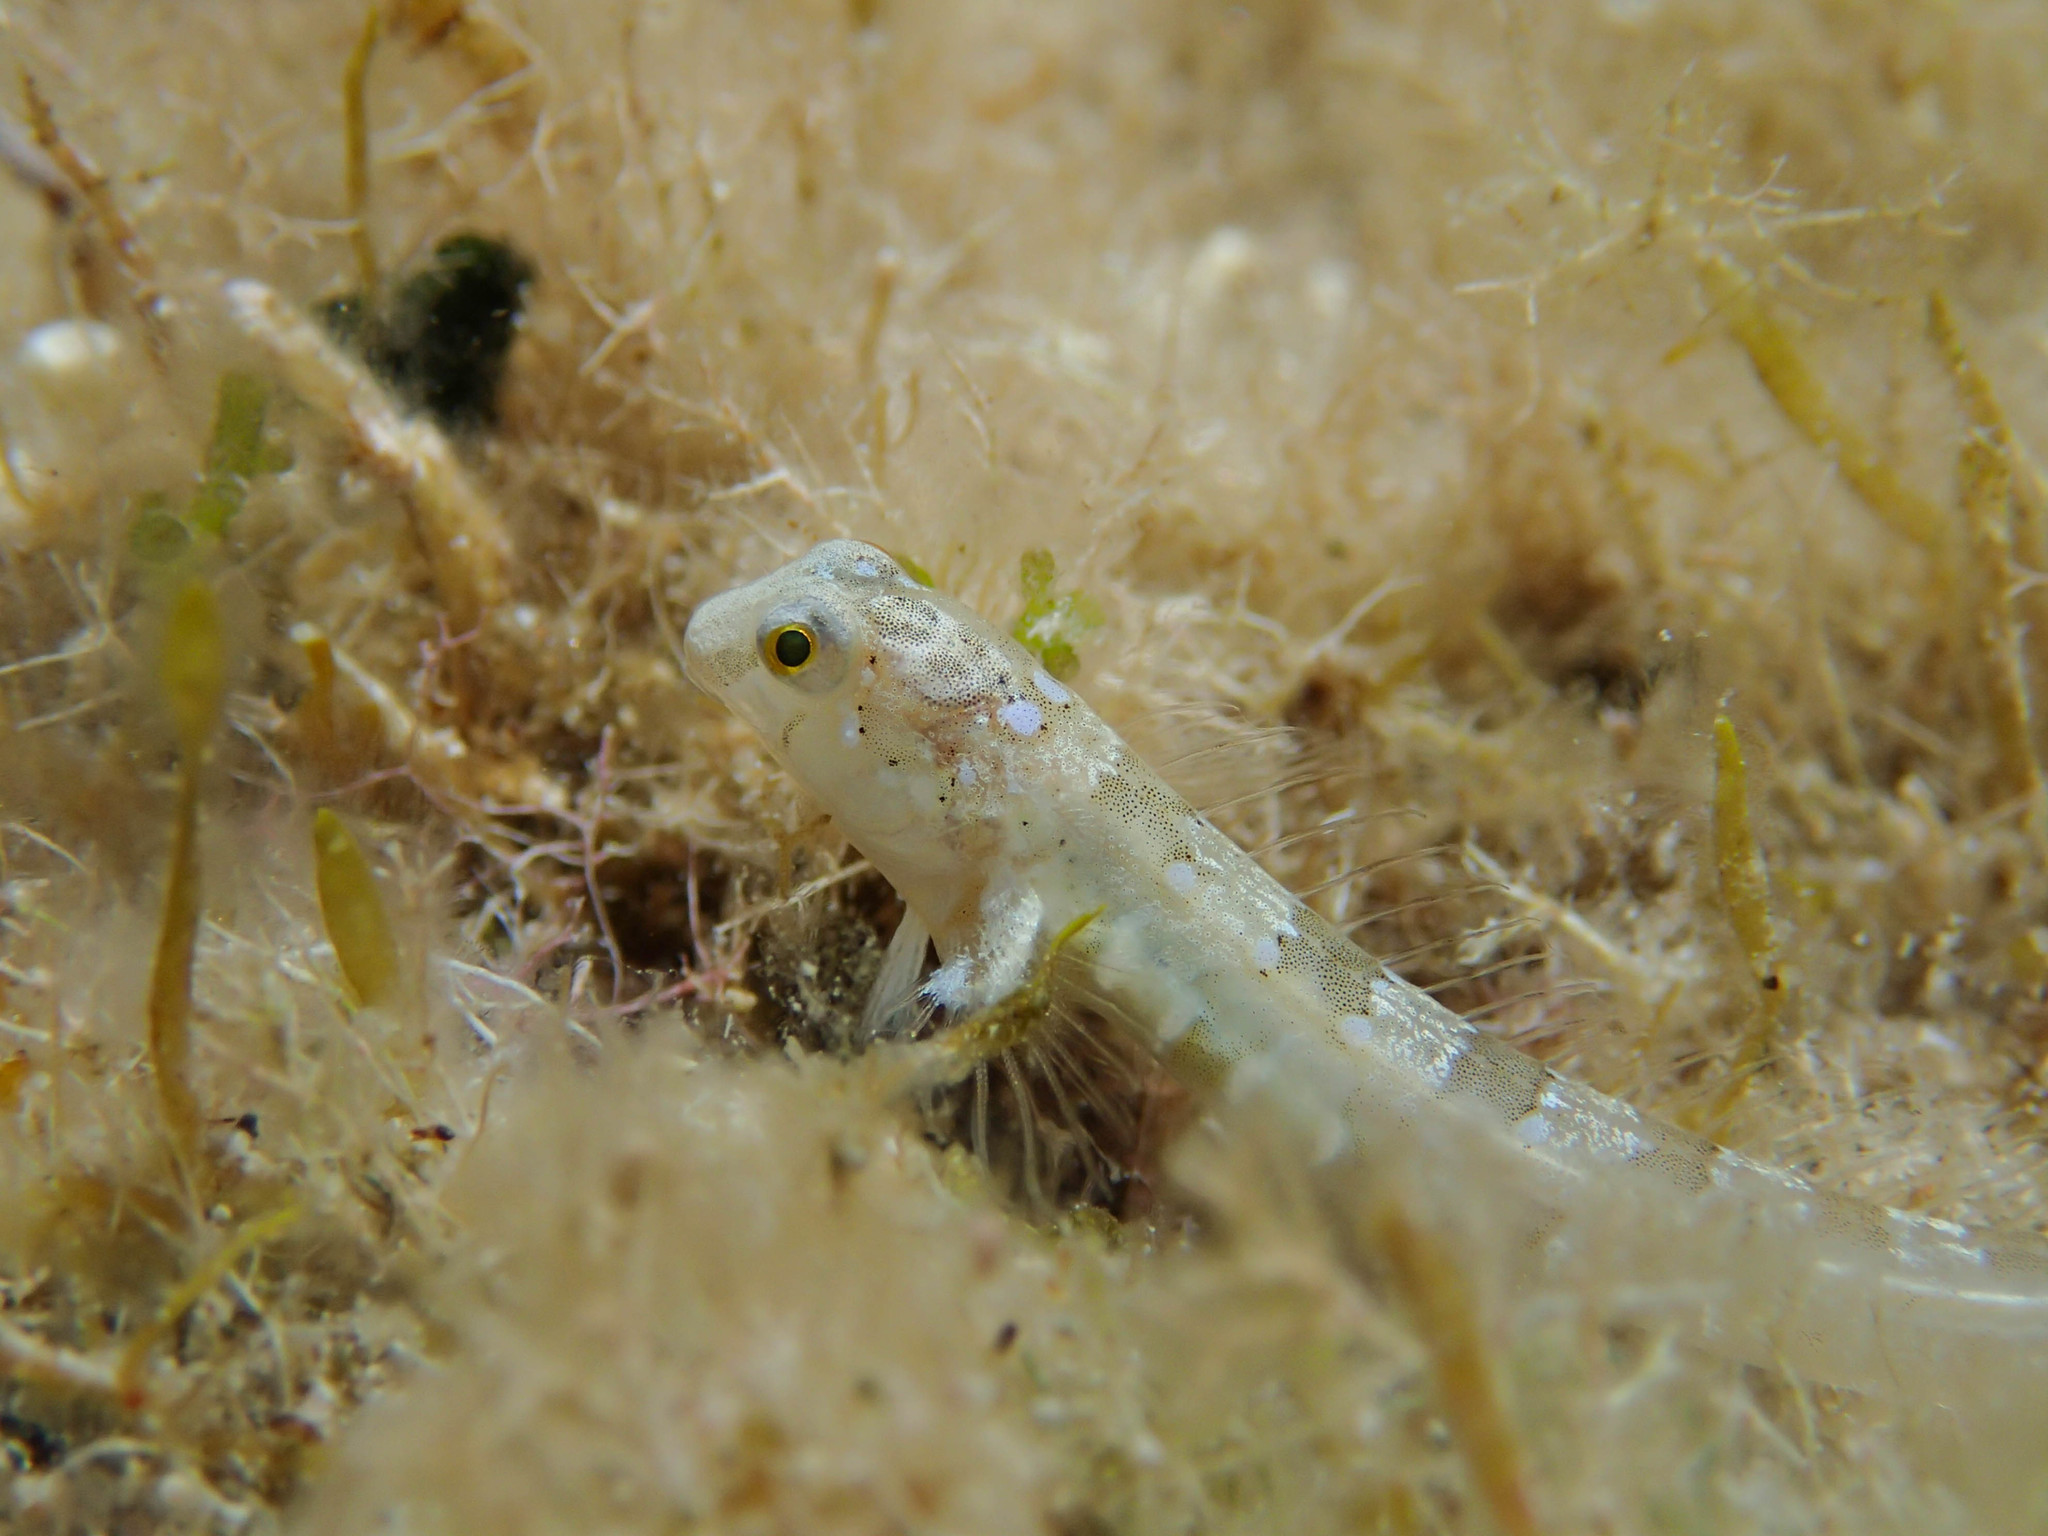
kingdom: Animalia
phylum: Chordata
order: Perciformes
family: Blenniidae
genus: Microlipophrys
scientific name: Microlipophrys dalmatinus
